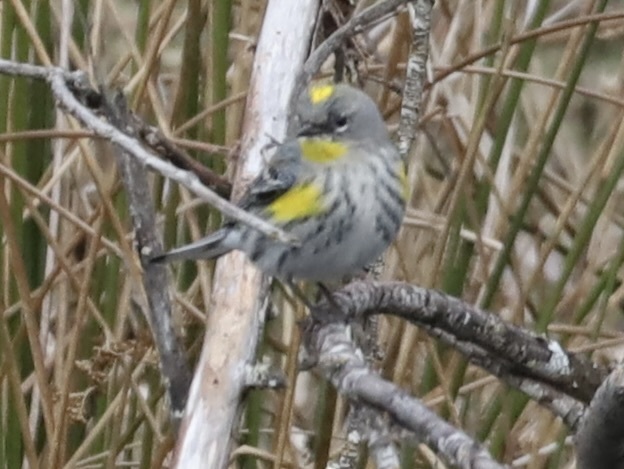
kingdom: Animalia
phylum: Chordata
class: Aves
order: Passeriformes
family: Parulidae
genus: Setophaga
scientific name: Setophaga coronata
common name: Myrtle warbler
